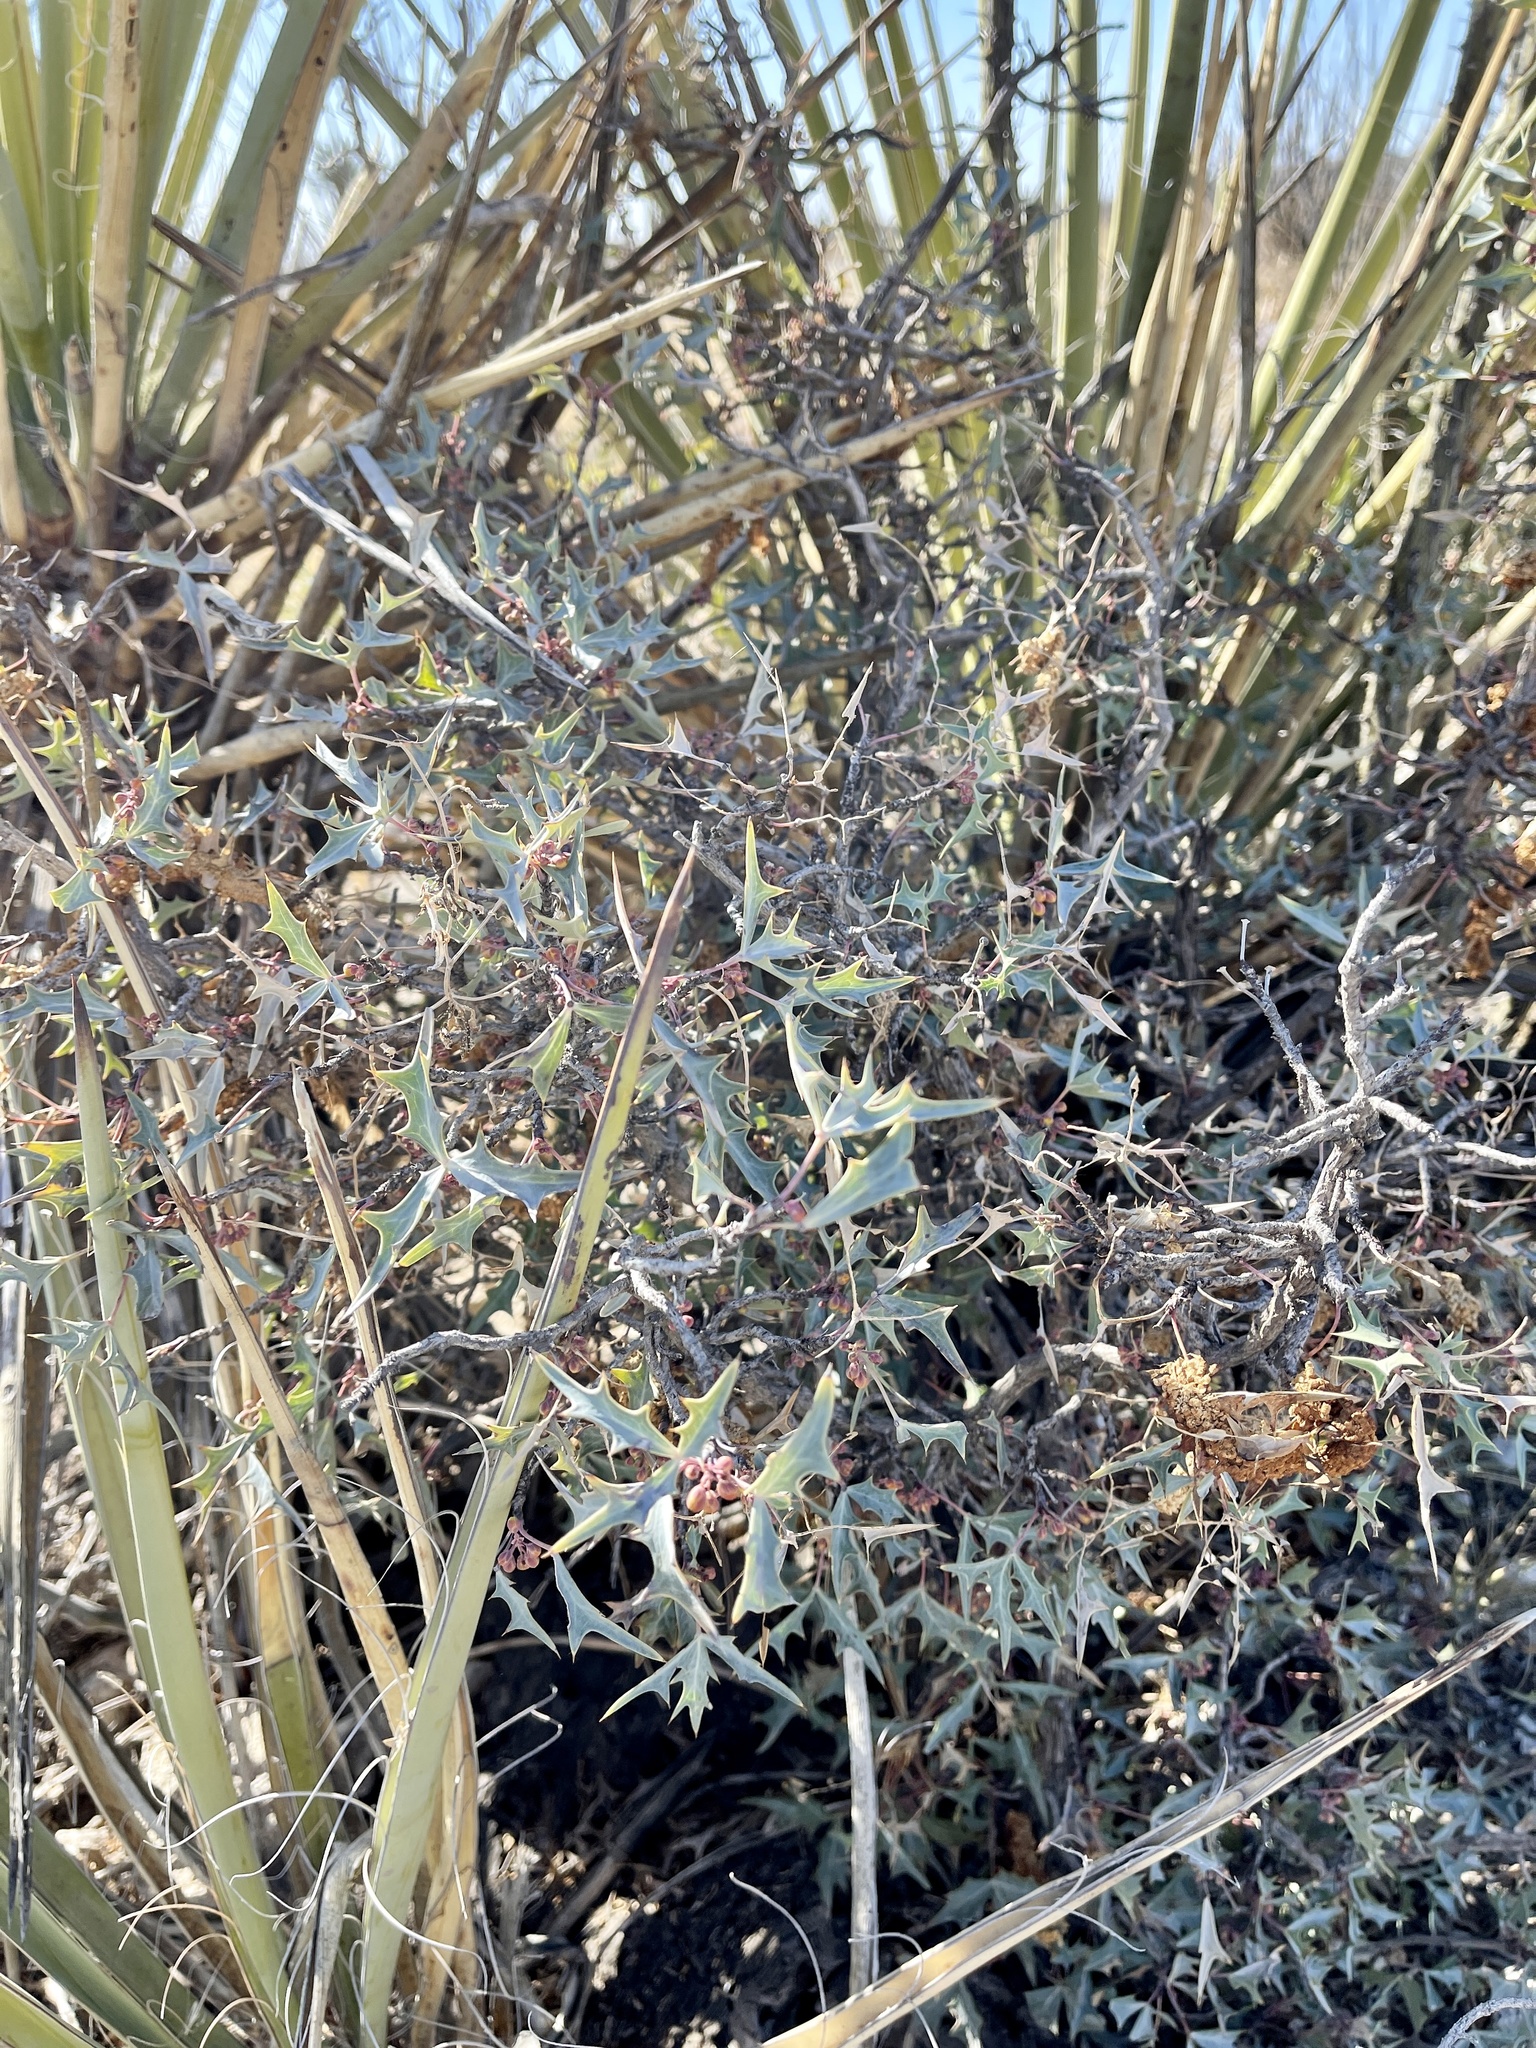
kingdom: Plantae
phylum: Tracheophyta
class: Magnoliopsida
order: Ranunculales
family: Berberidaceae
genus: Alloberberis
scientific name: Alloberberis trifoliolata
